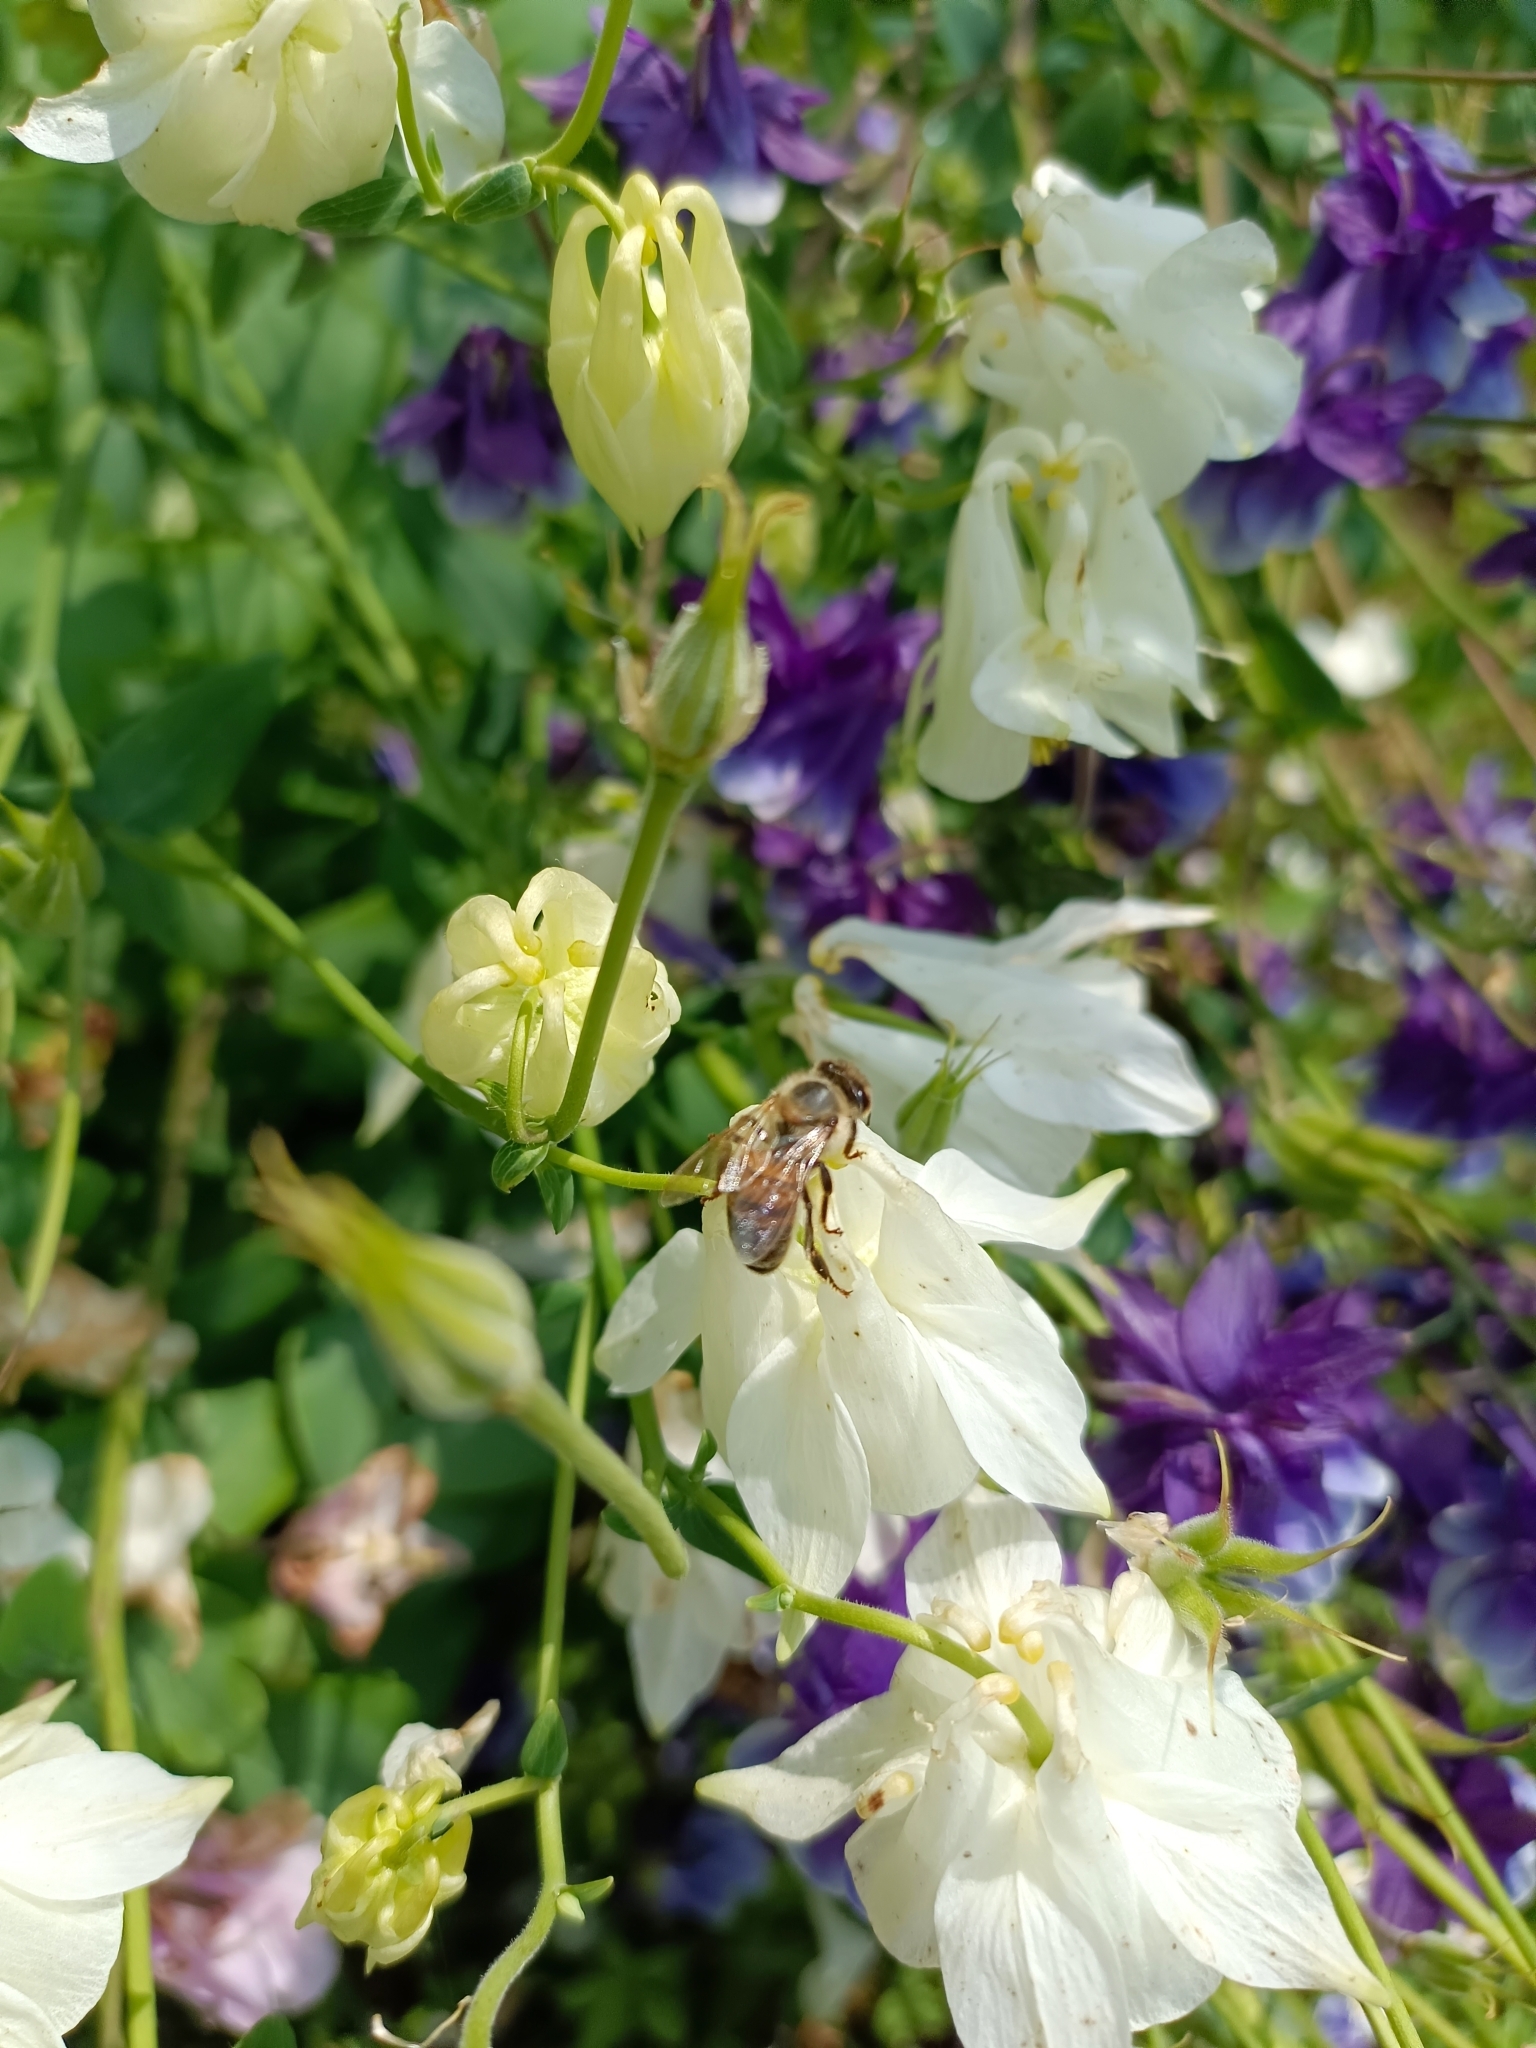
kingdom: Animalia
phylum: Arthropoda
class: Insecta
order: Hymenoptera
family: Apidae
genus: Apis
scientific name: Apis mellifera
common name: Honey bee
